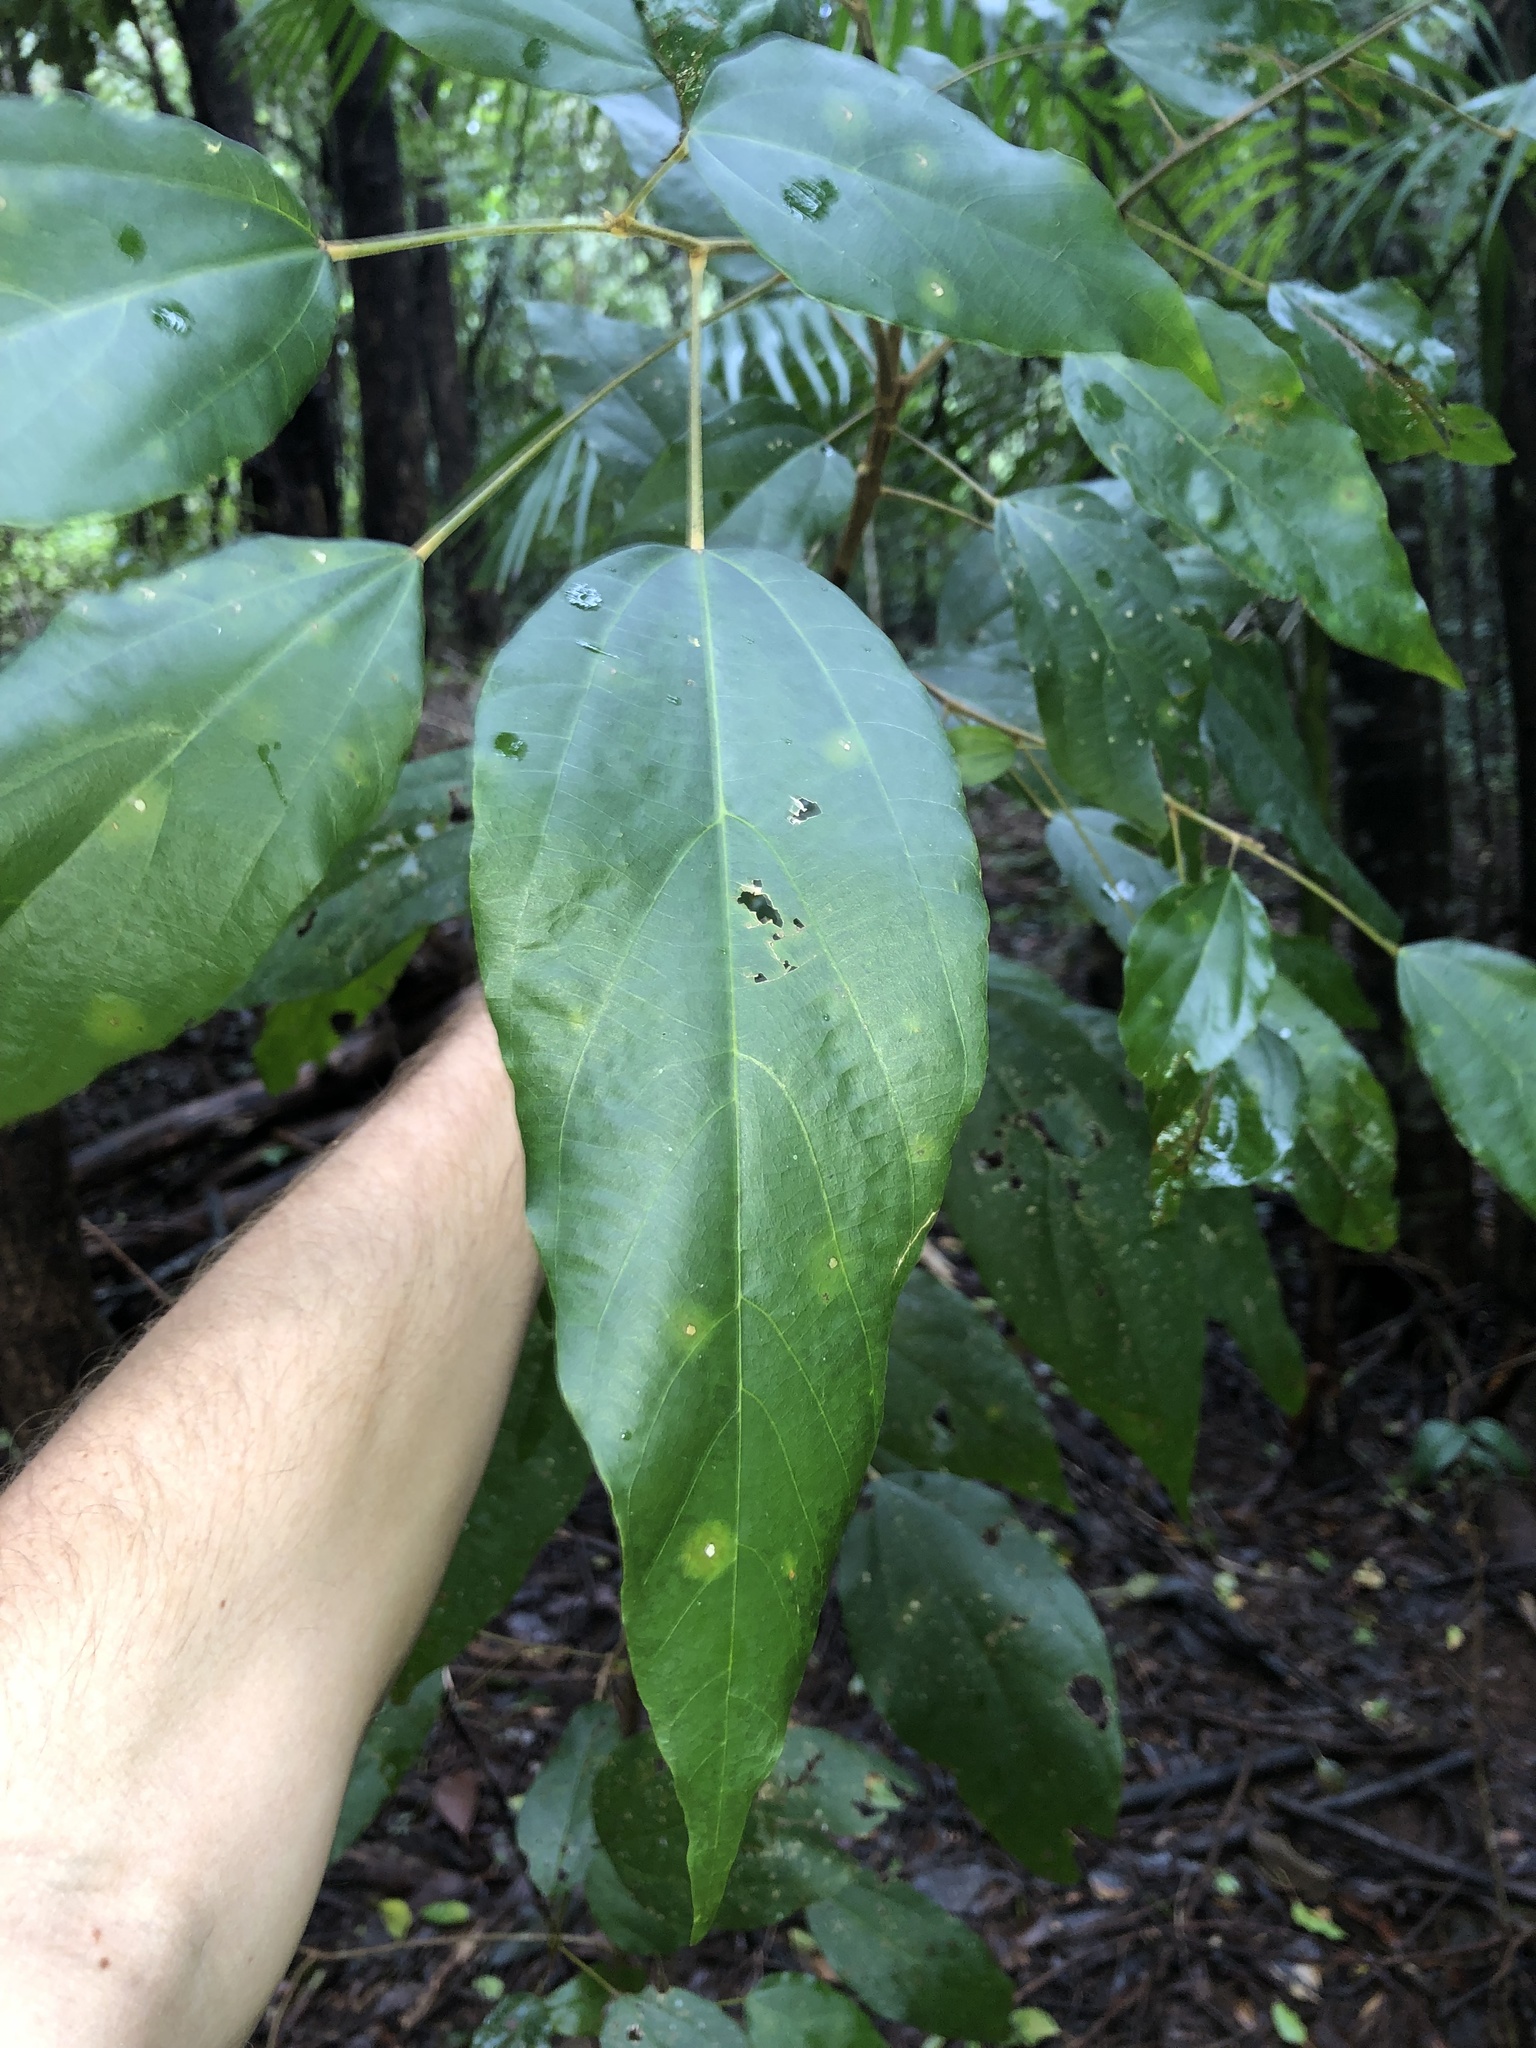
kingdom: Plantae
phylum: Tracheophyta
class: Magnoliopsida
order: Malpighiales
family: Euphorbiaceae
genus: Mallotus
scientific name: Mallotus philippensis
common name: Kamala tree
